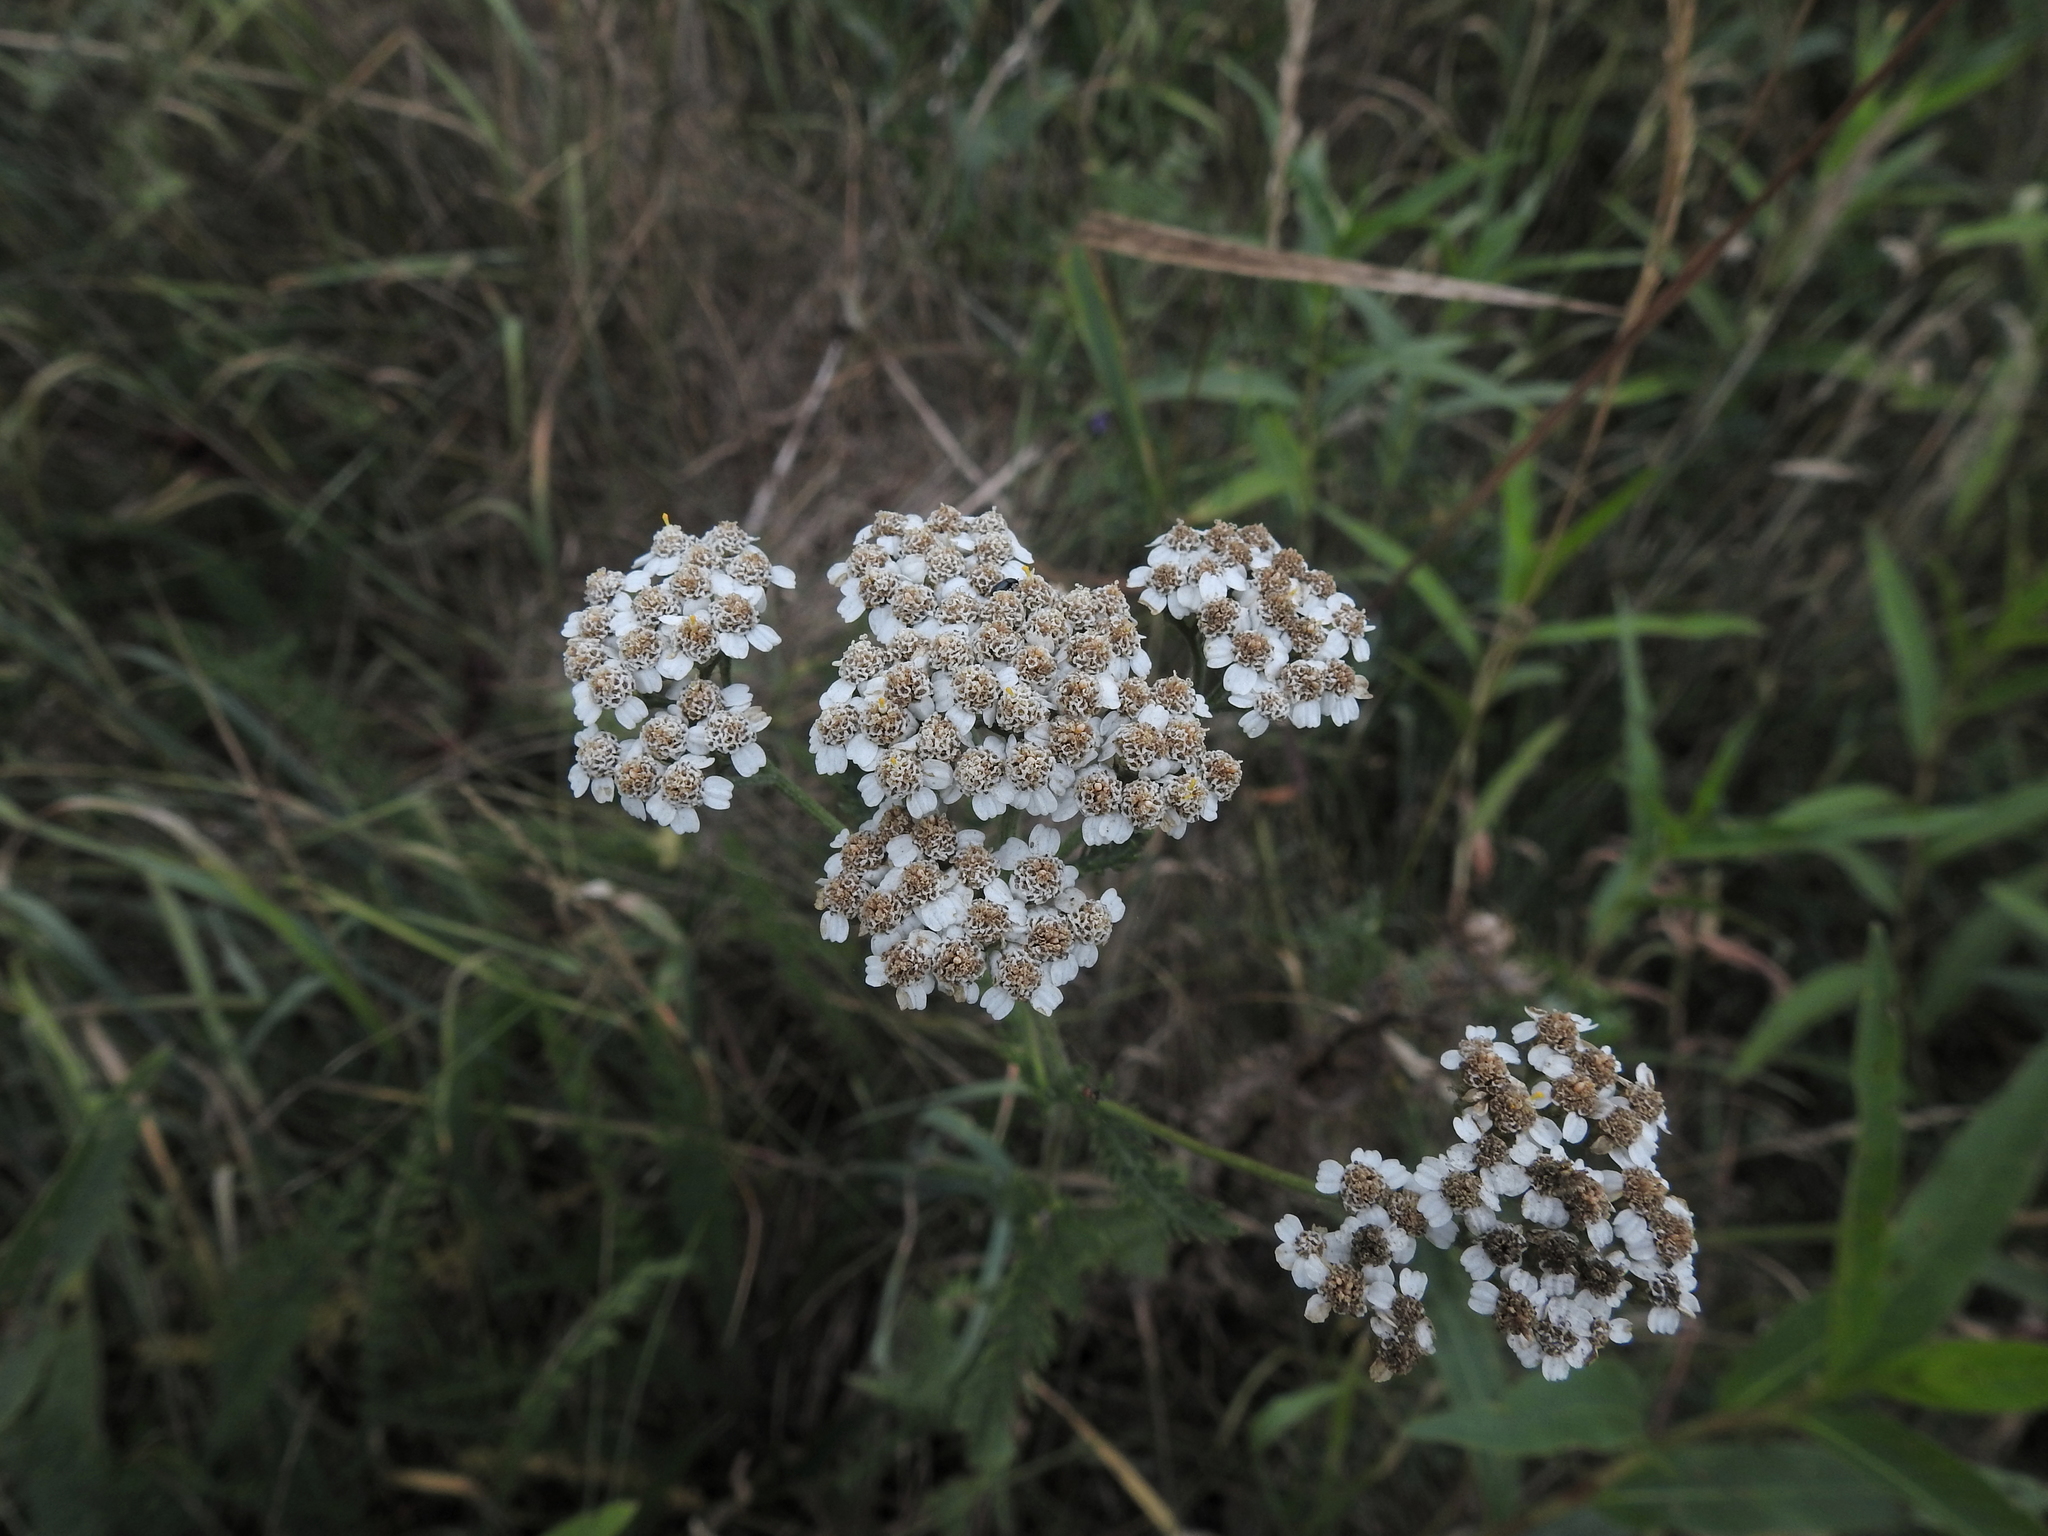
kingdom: Plantae
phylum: Tracheophyta
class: Magnoliopsida
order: Asterales
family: Asteraceae
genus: Achillea
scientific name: Achillea millefolium
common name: Yarrow
